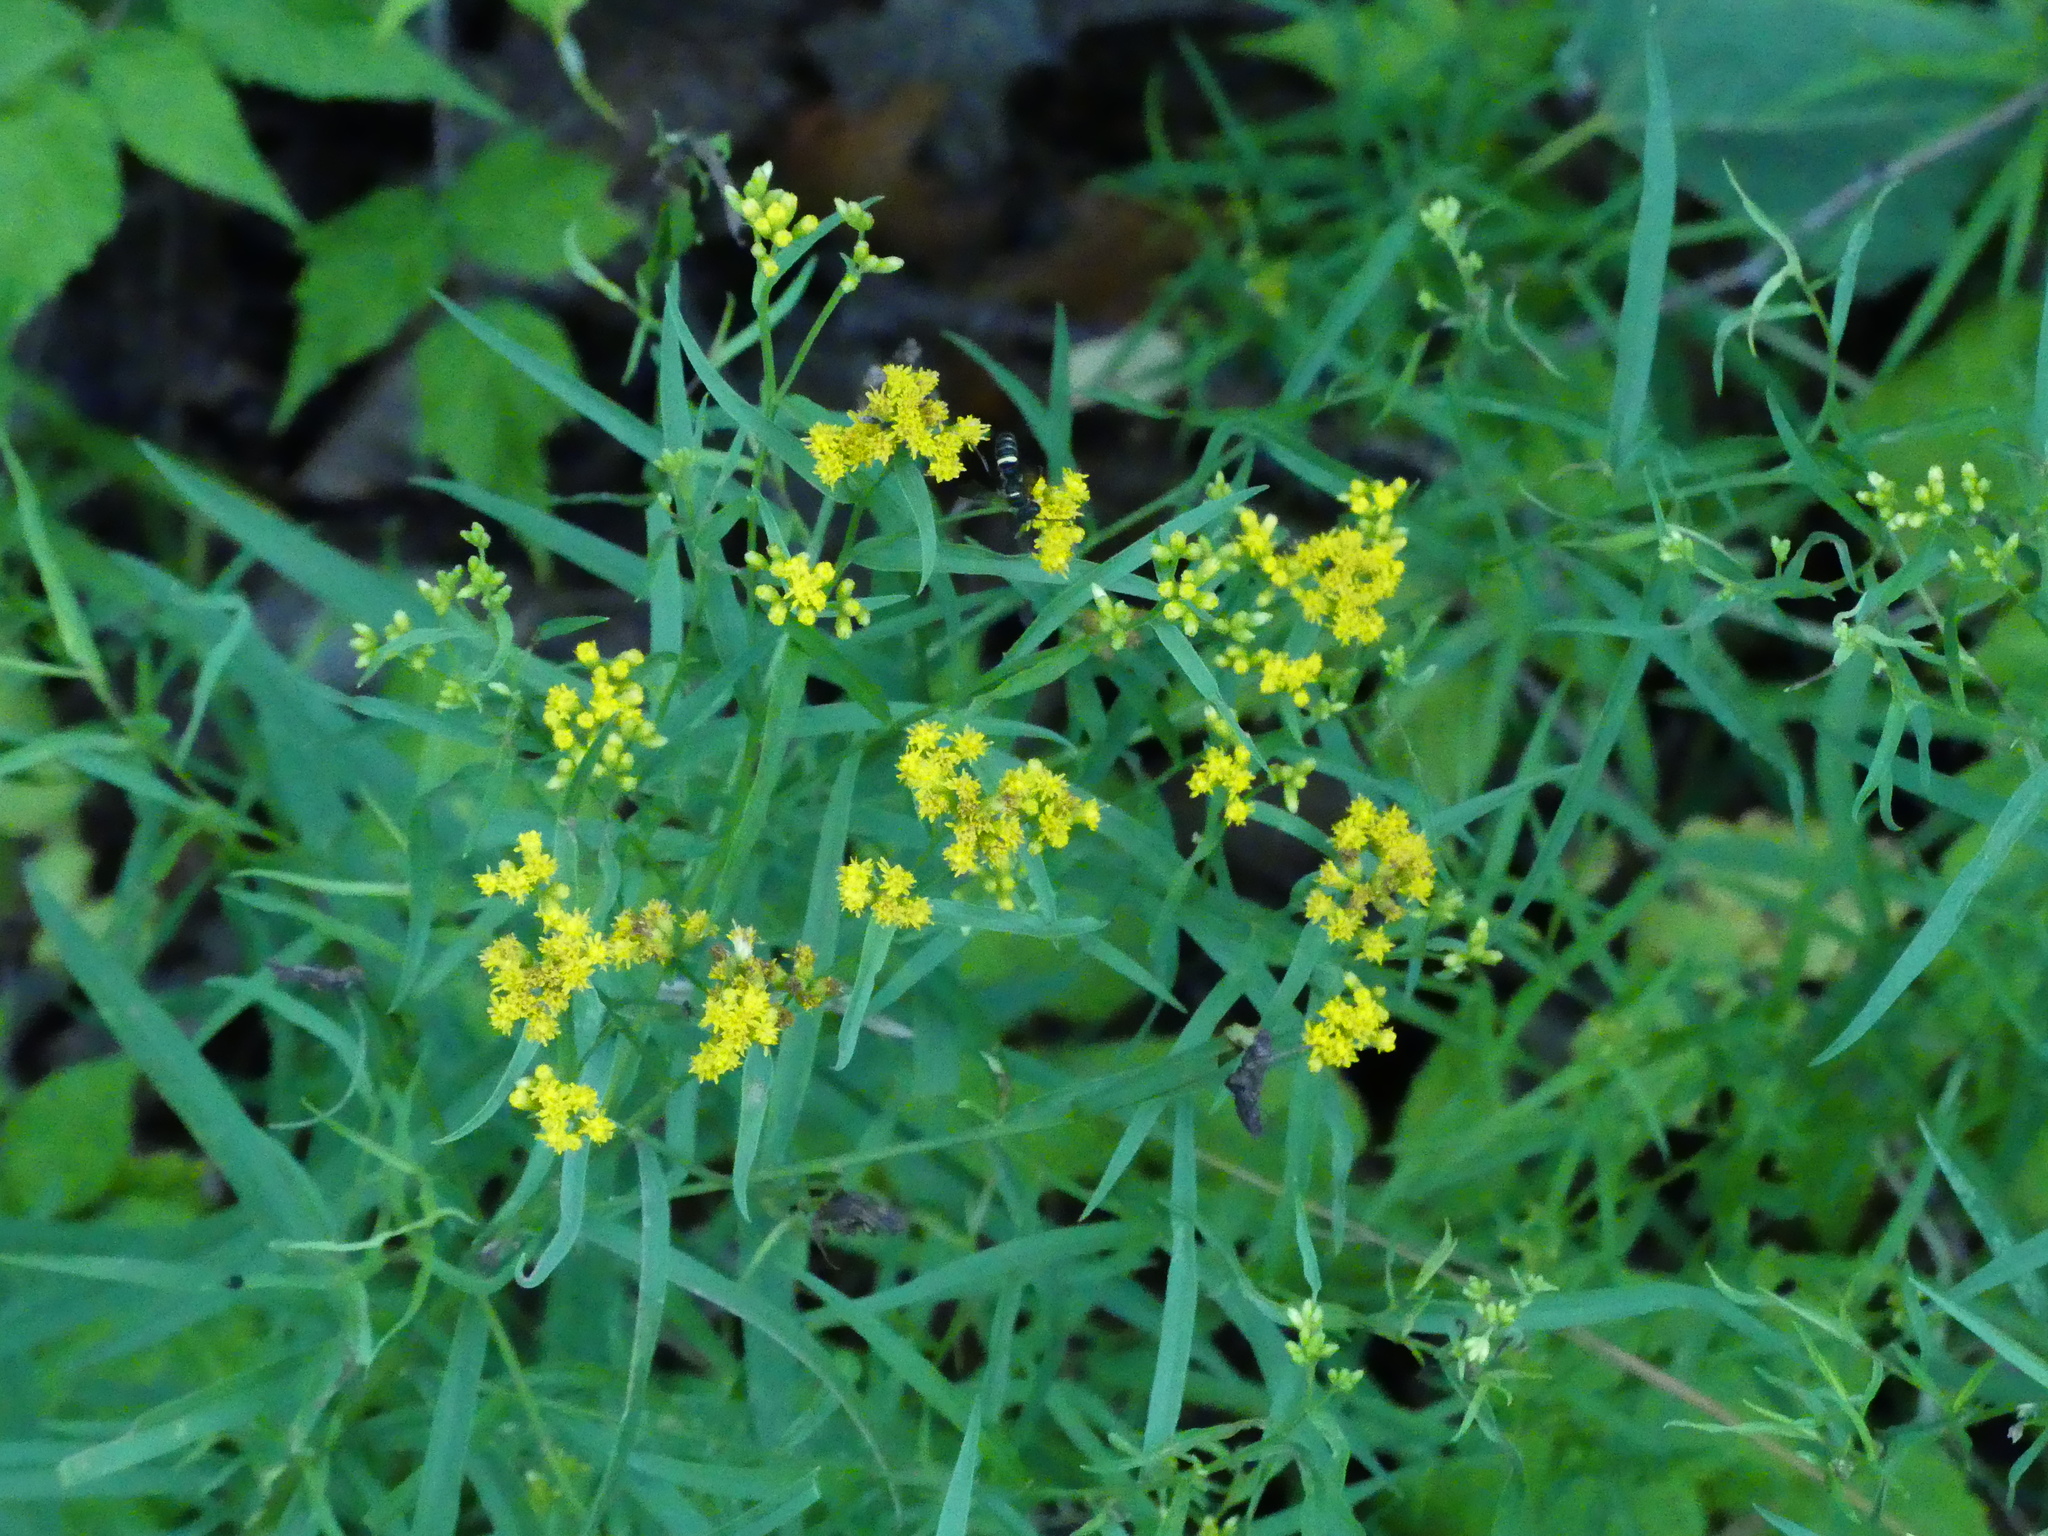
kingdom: Plantae
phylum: Tracheophyta
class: Magnoliopsida
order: Asterales
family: Asteraceae
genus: Euthamia
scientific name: Euthamia graminifolia
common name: Common goldentop
